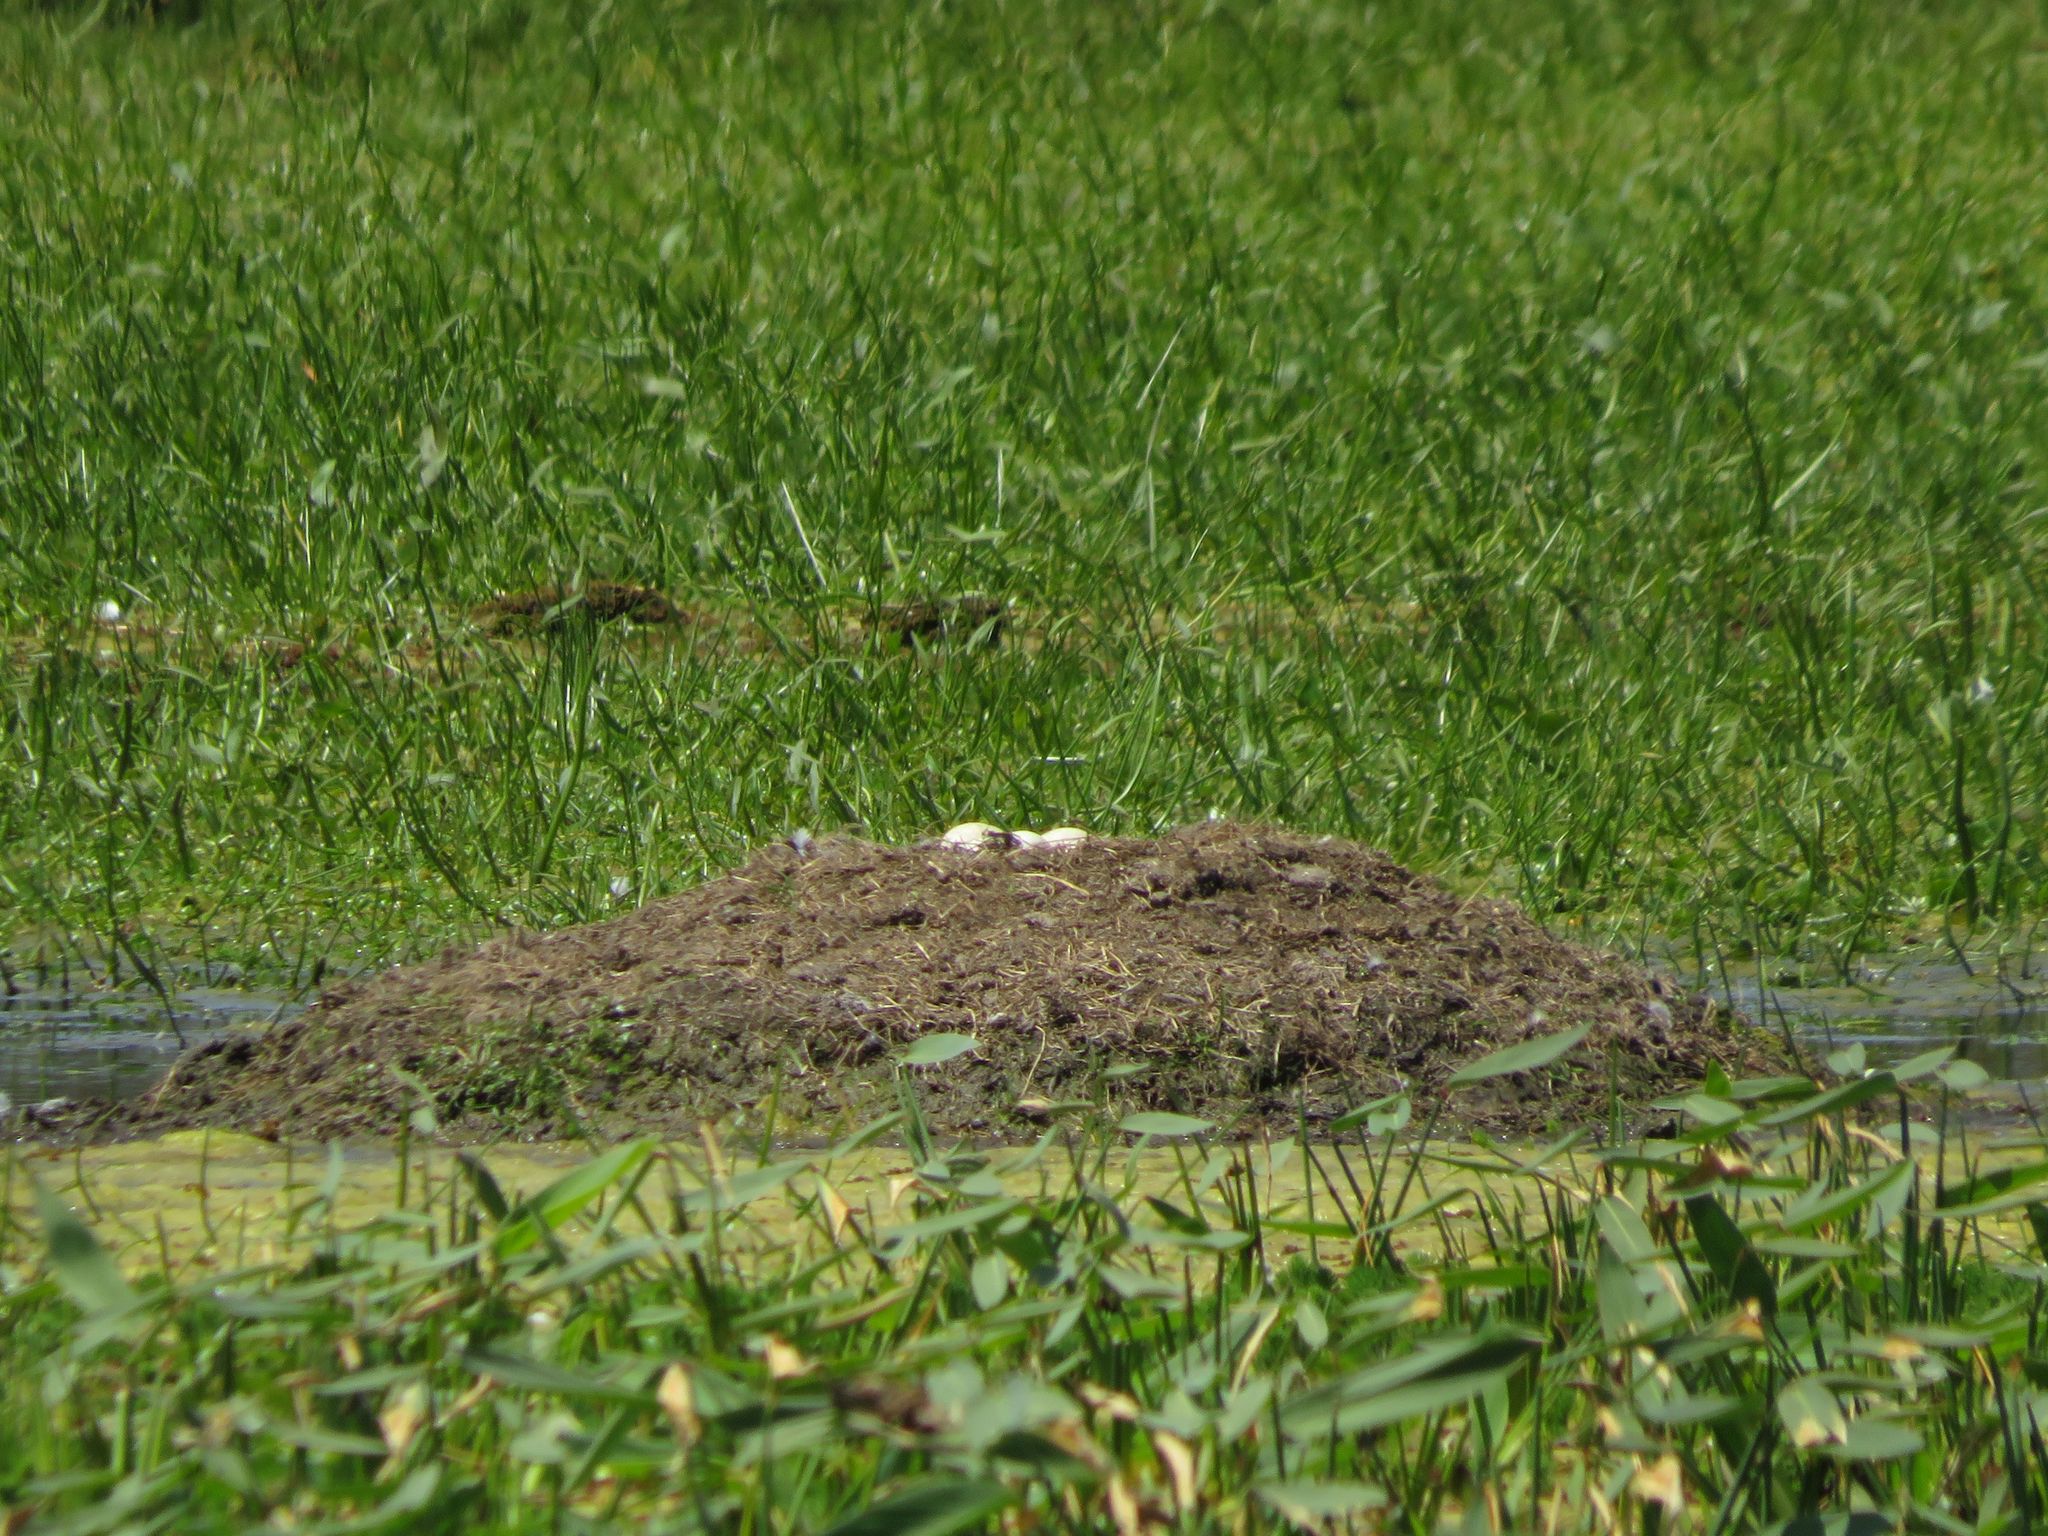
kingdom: Animalia
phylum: Chordata
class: Aves
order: Anseriformes
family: Anhimidae
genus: Chauna
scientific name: Chauna torquata
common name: Southern screamer
